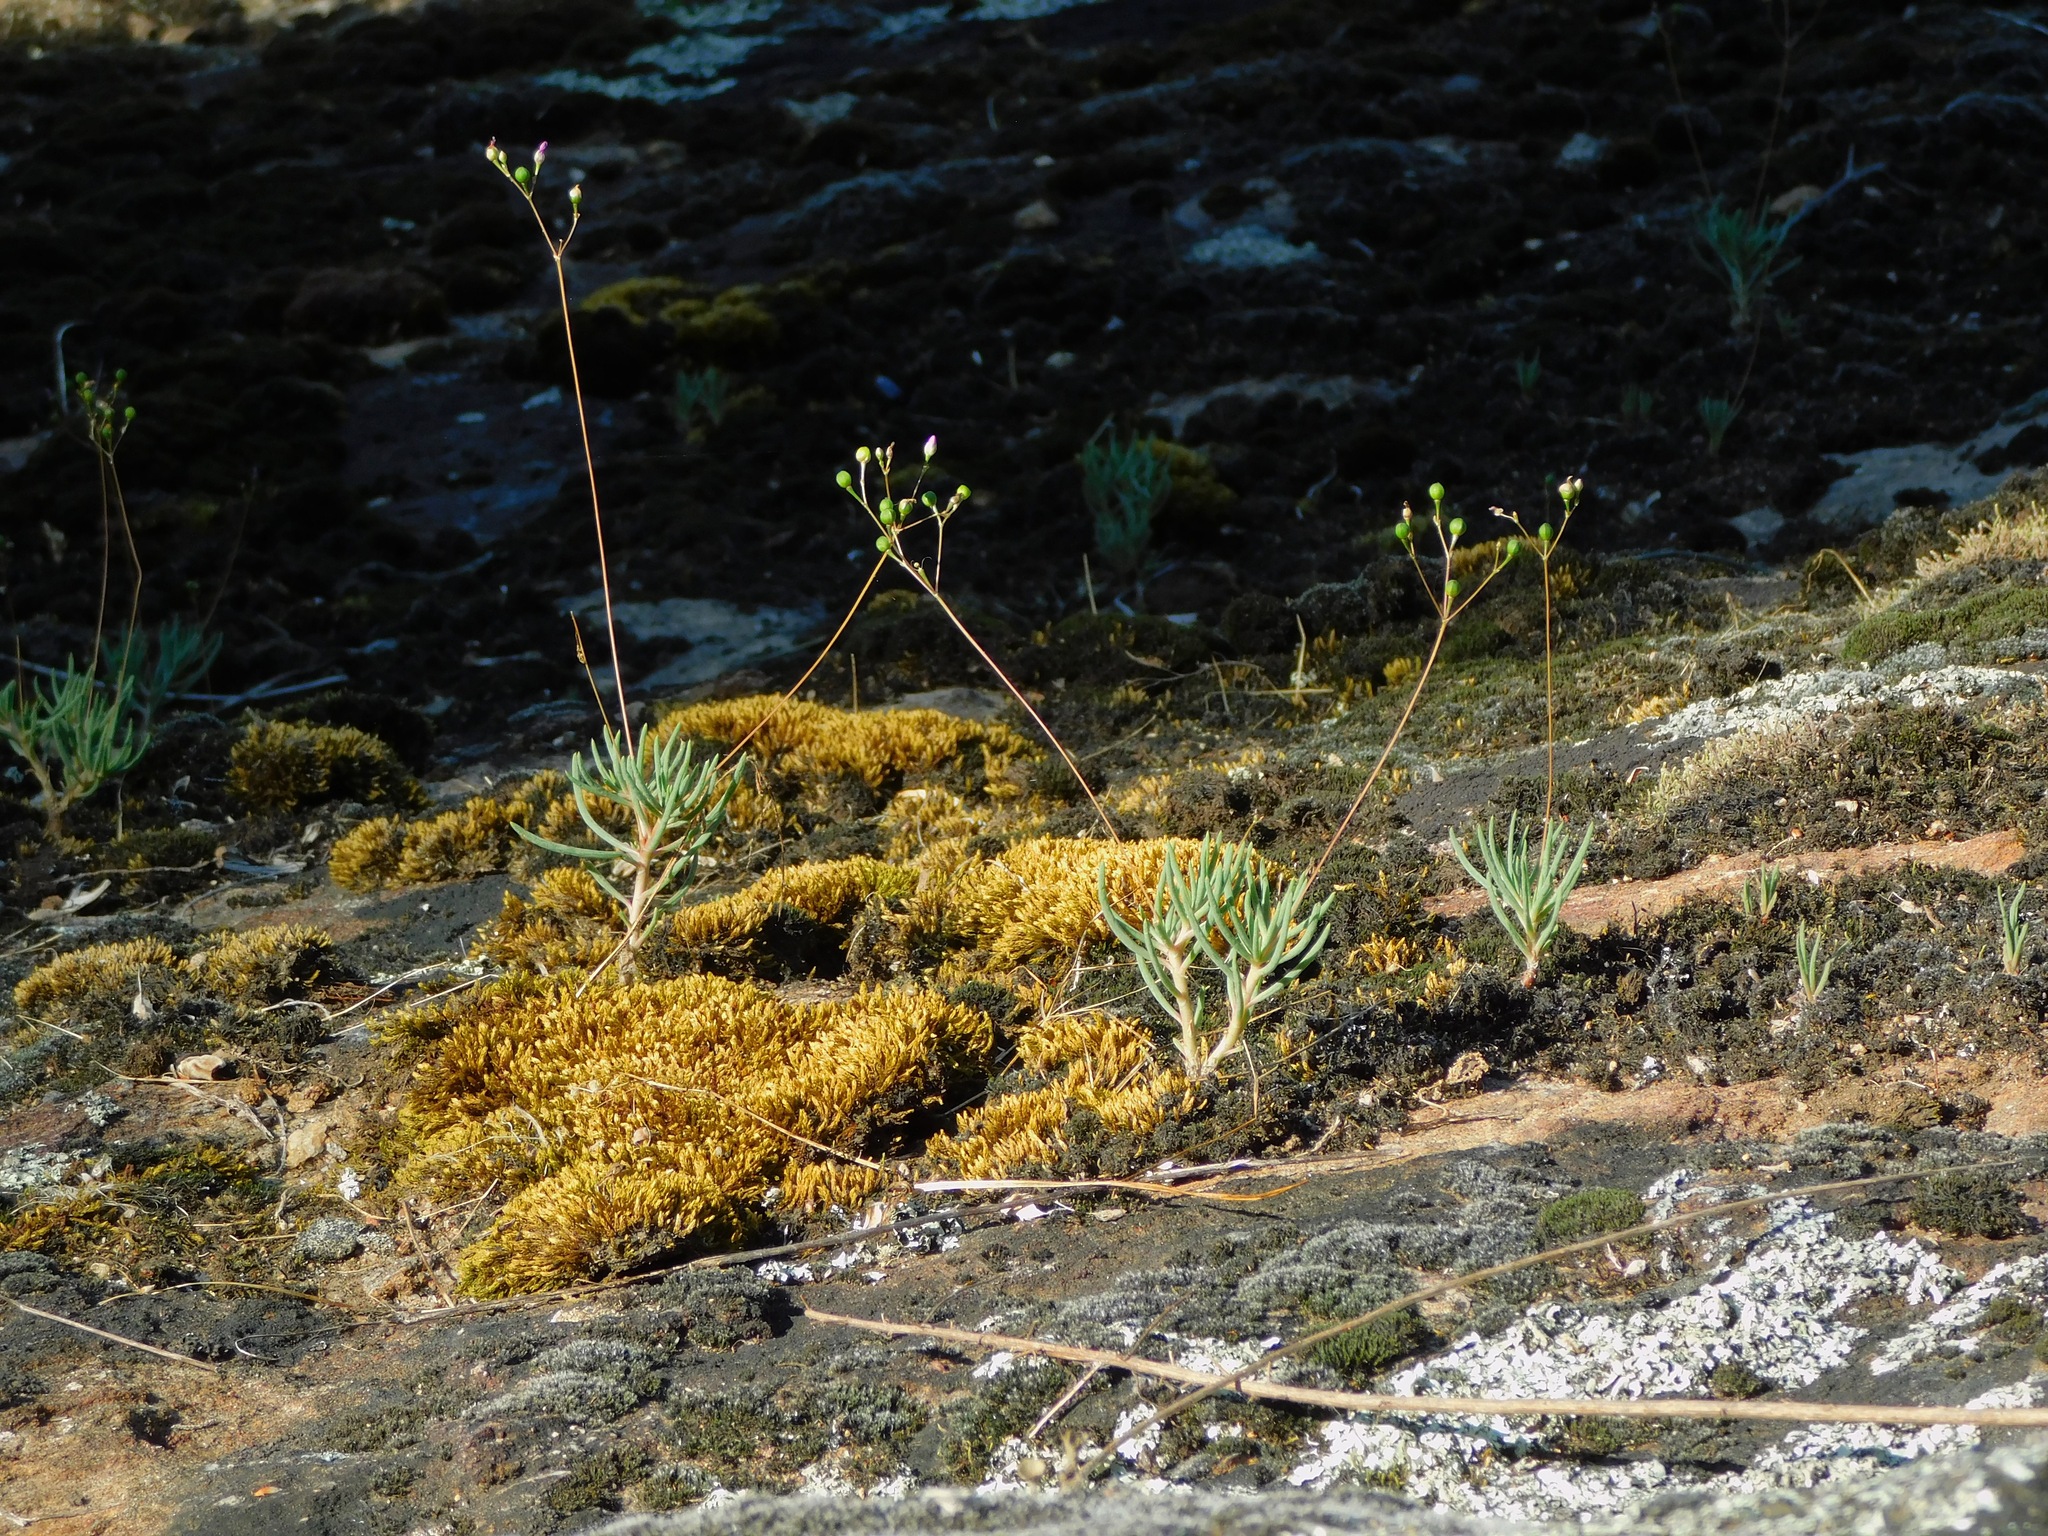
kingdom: Plantae
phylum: Tracheophyta
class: Magnoliopsida
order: Caryophyllales
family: Montiaceae
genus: Phemeranthus
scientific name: Phemeranthus teretifolius
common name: Quill fameflower
